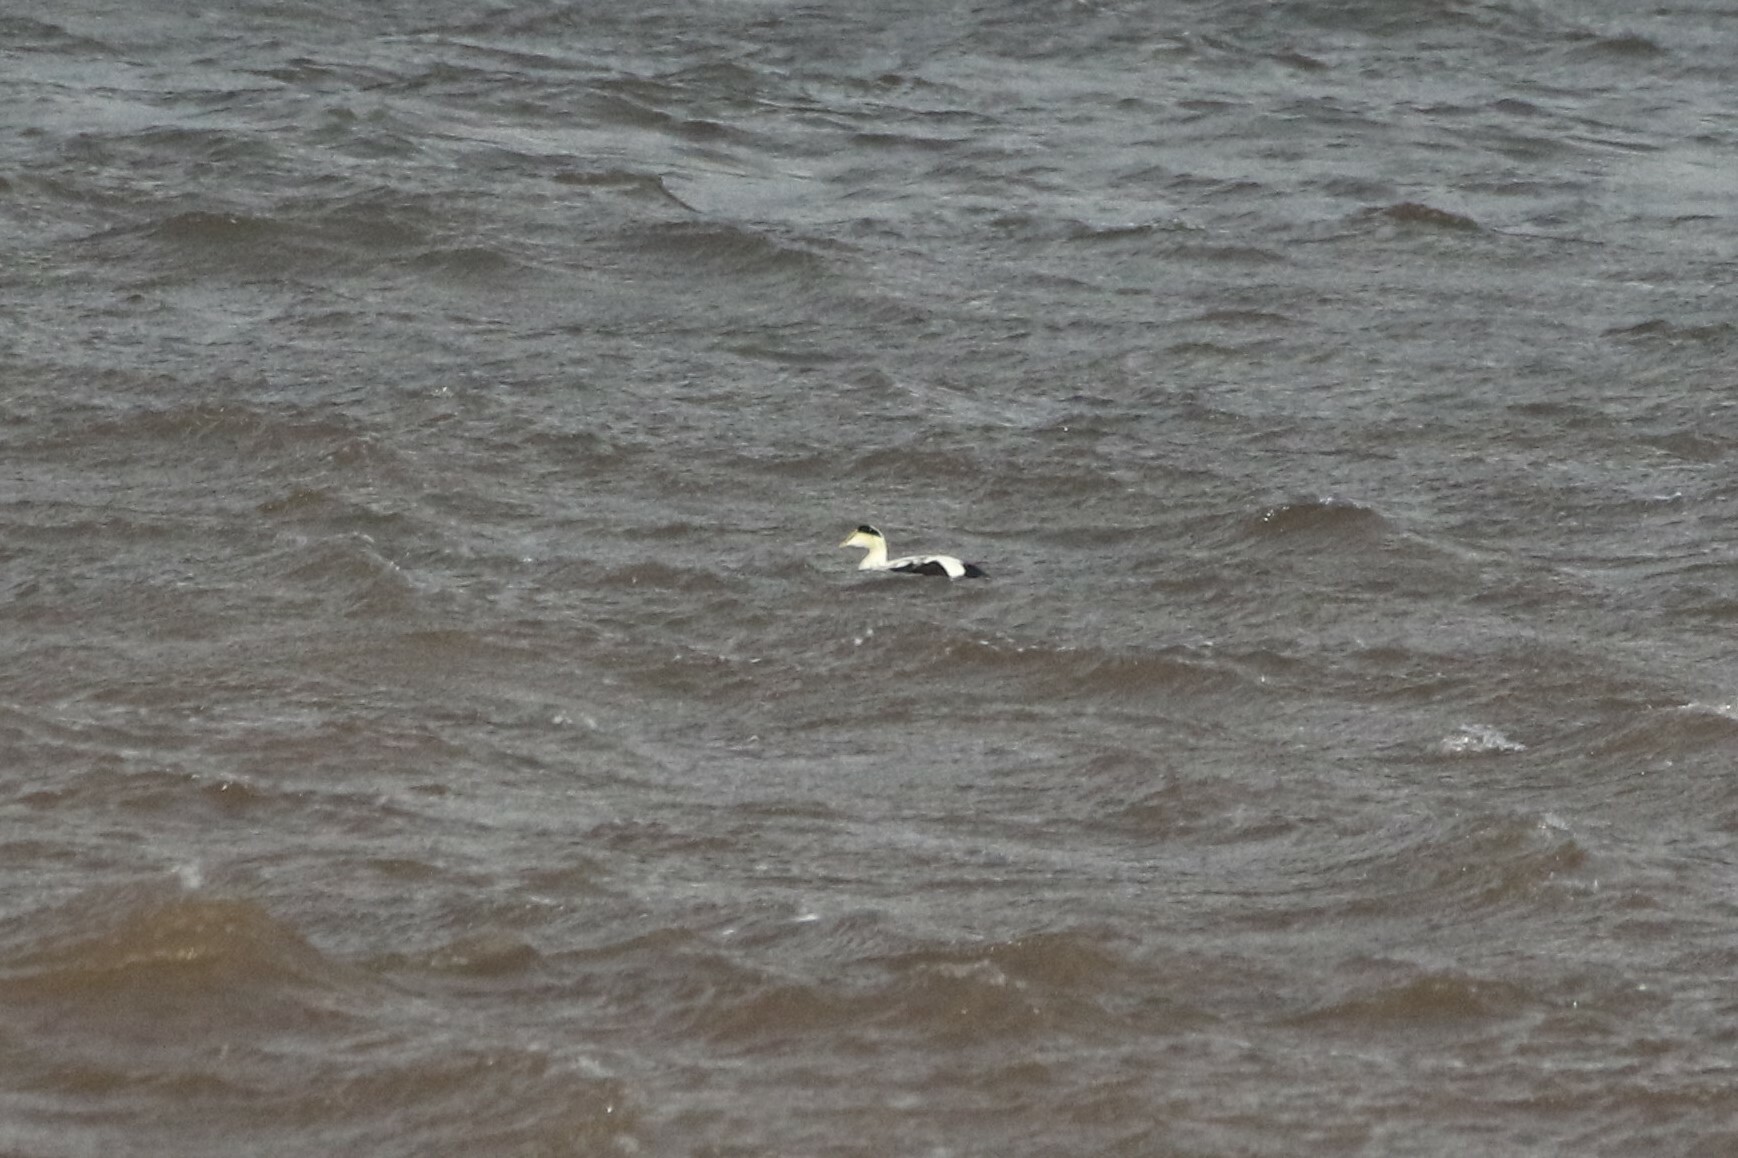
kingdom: Animalia
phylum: Chordata
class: Aves
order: Anseriformes
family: Anatidae
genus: Somateria
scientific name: Somateria mollissima
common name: Common eider
